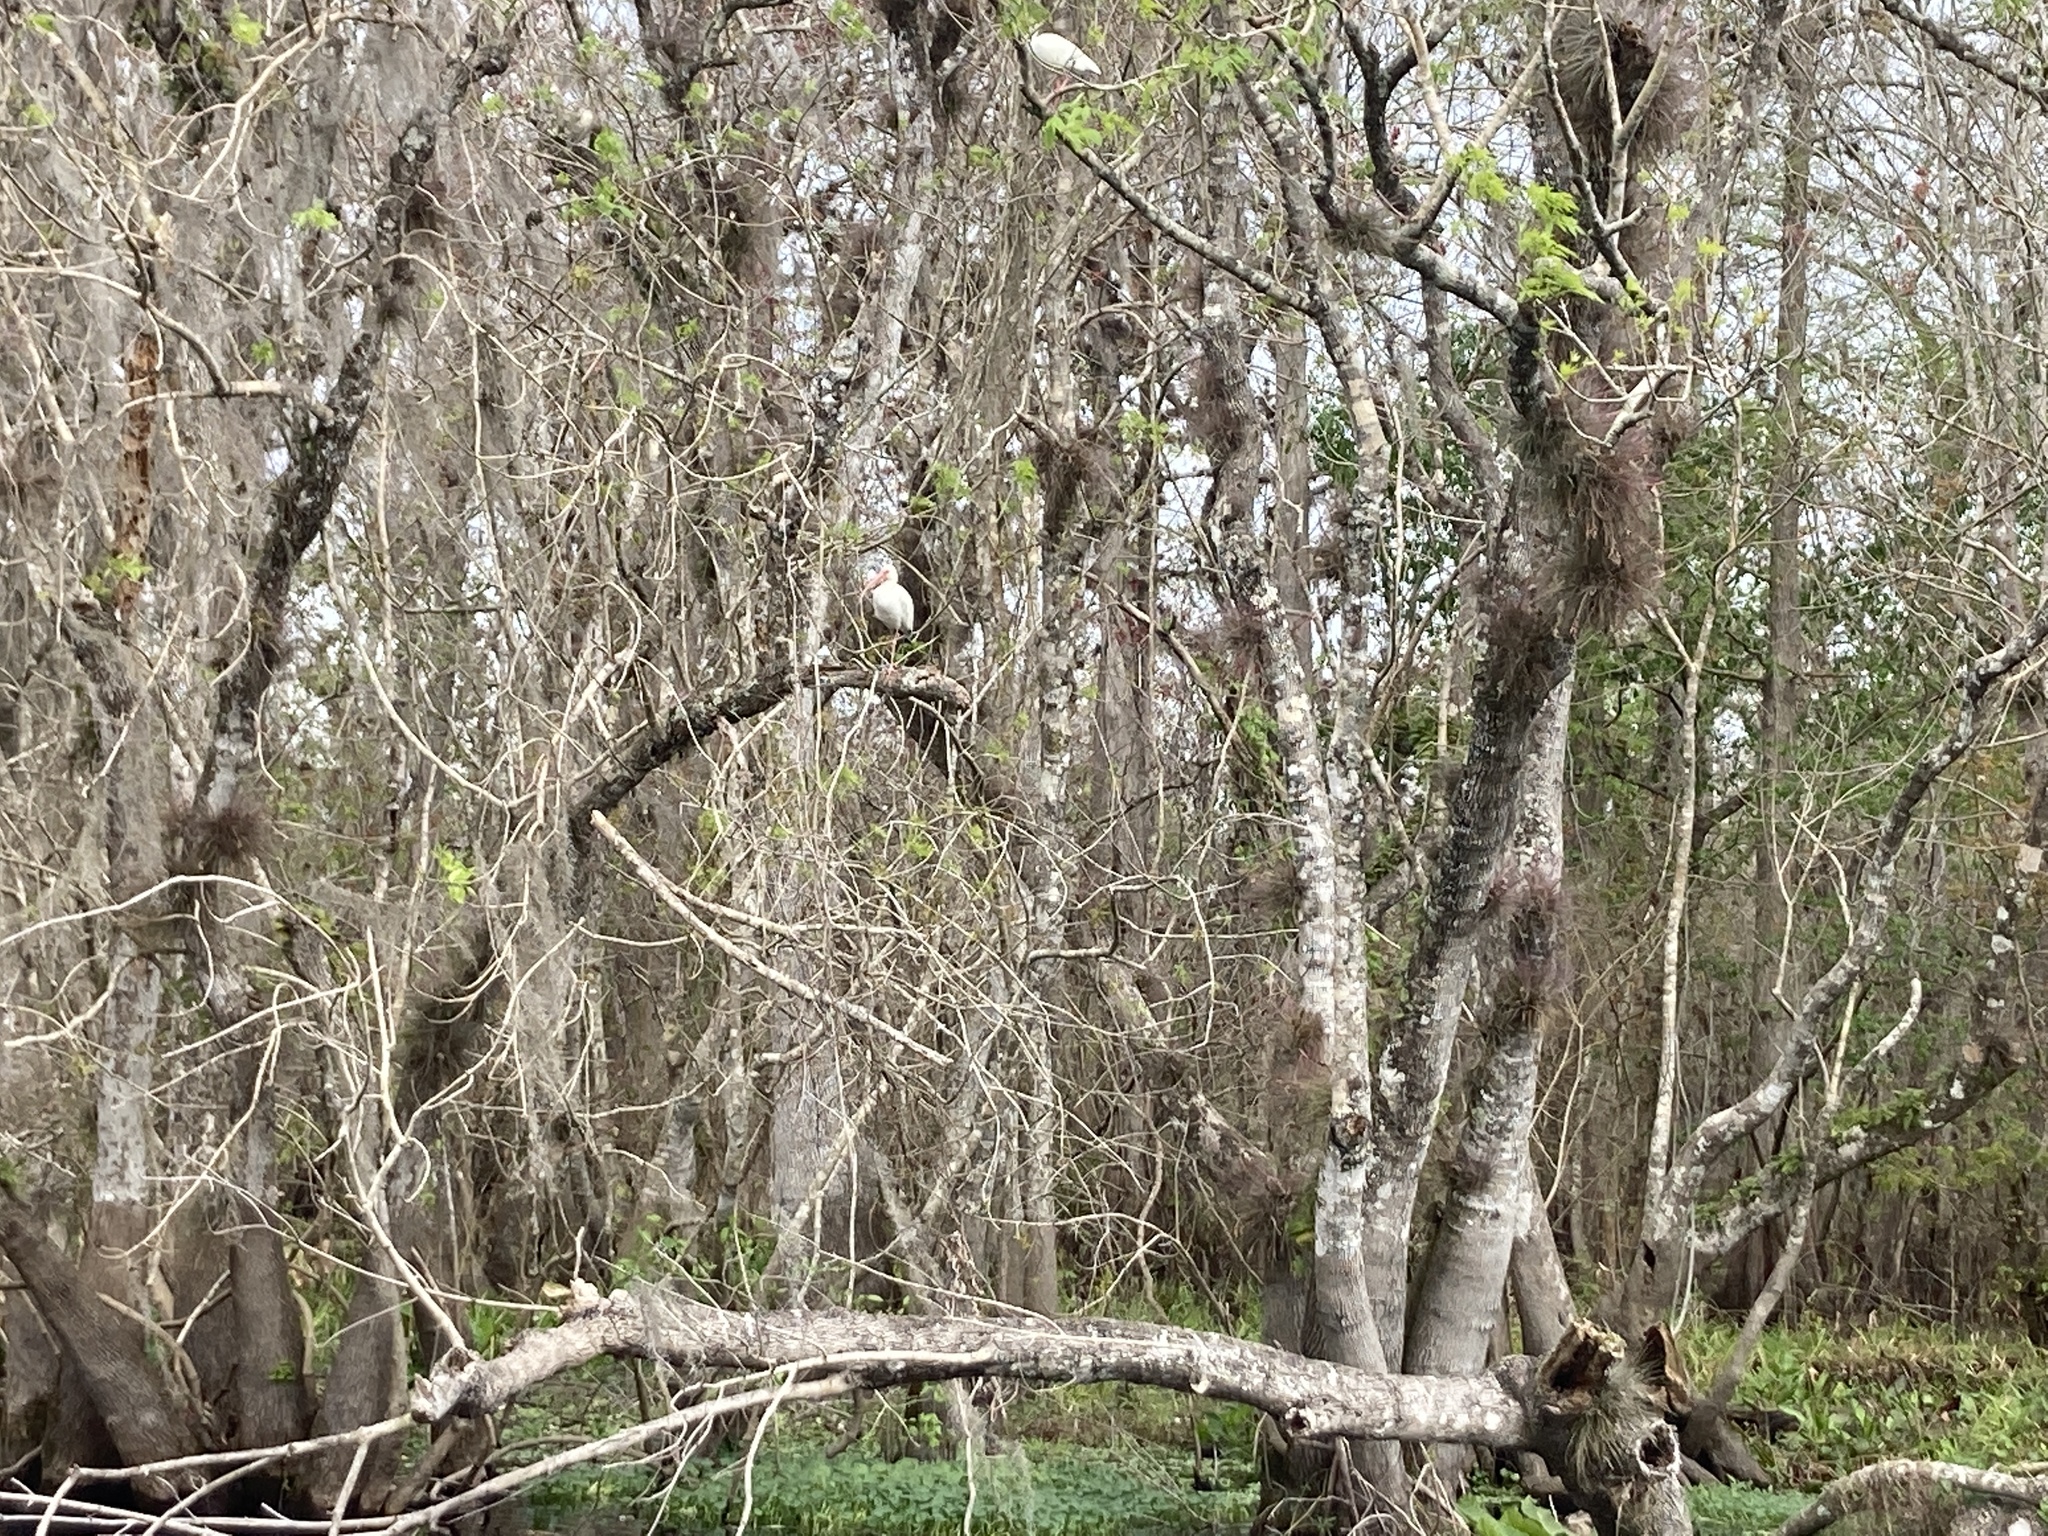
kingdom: Animalia
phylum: Chordata
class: Aves
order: Pelecaniformes
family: Threskiornithidae
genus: Eudocimus
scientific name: Eudocimus albus
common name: White ibis
